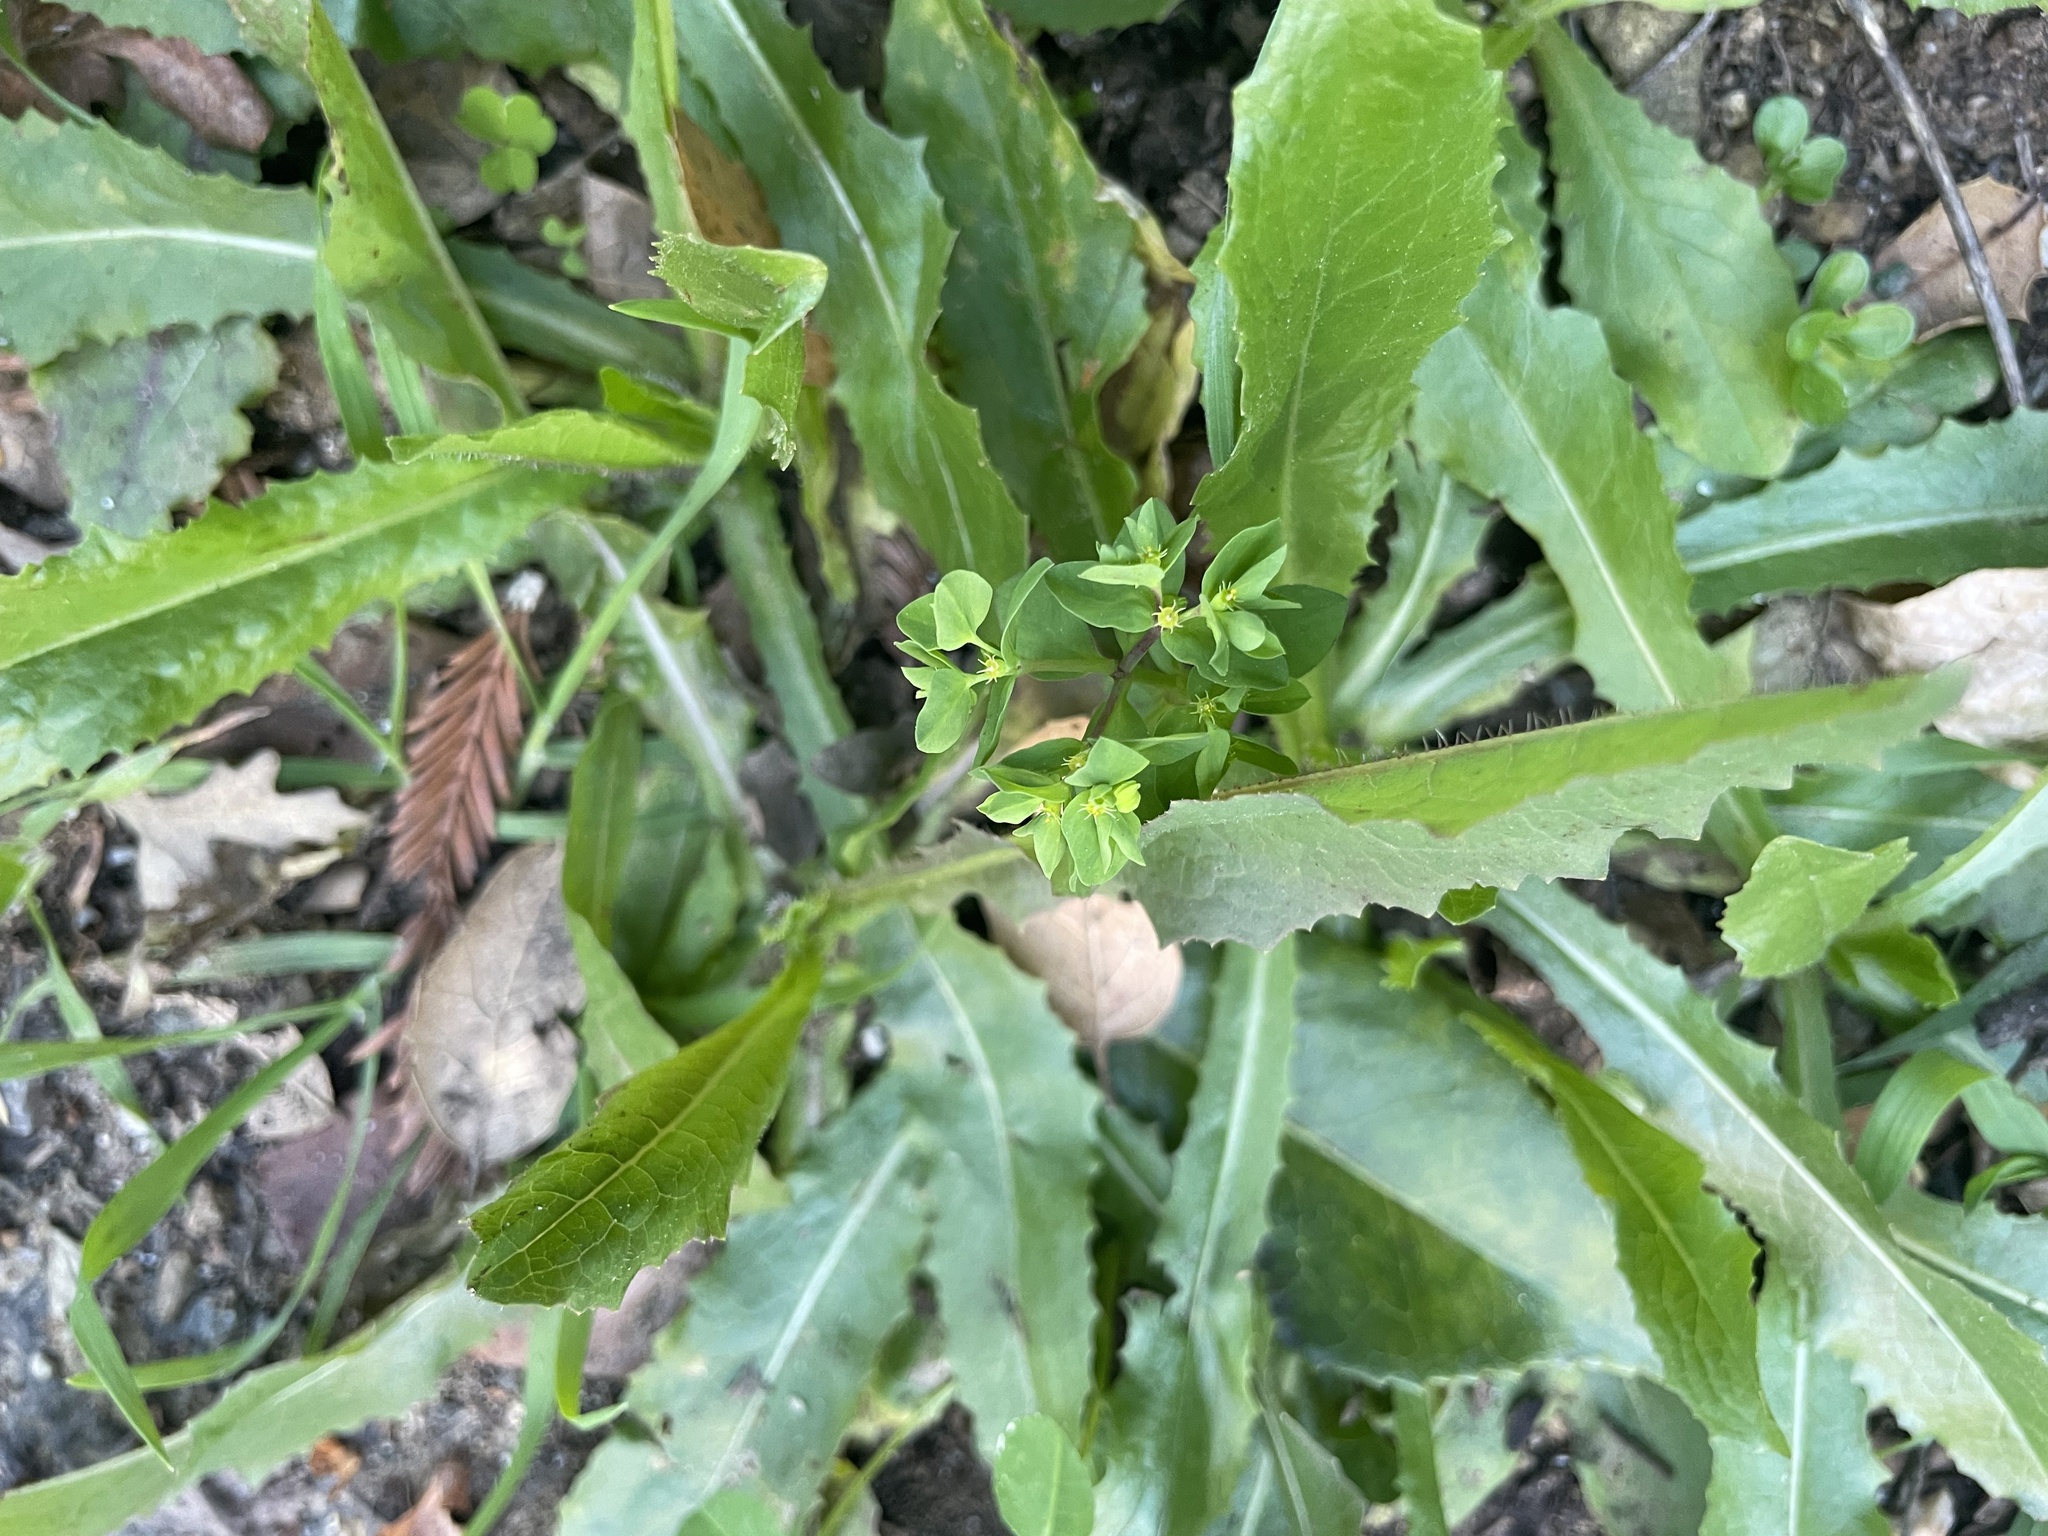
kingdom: Plantae
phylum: Tracheophyta
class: Magnoliopsida
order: Malpighiales
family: Euphorbiaceae
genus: Euphorbia
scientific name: Euphorbia peplus
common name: Petty spurge
